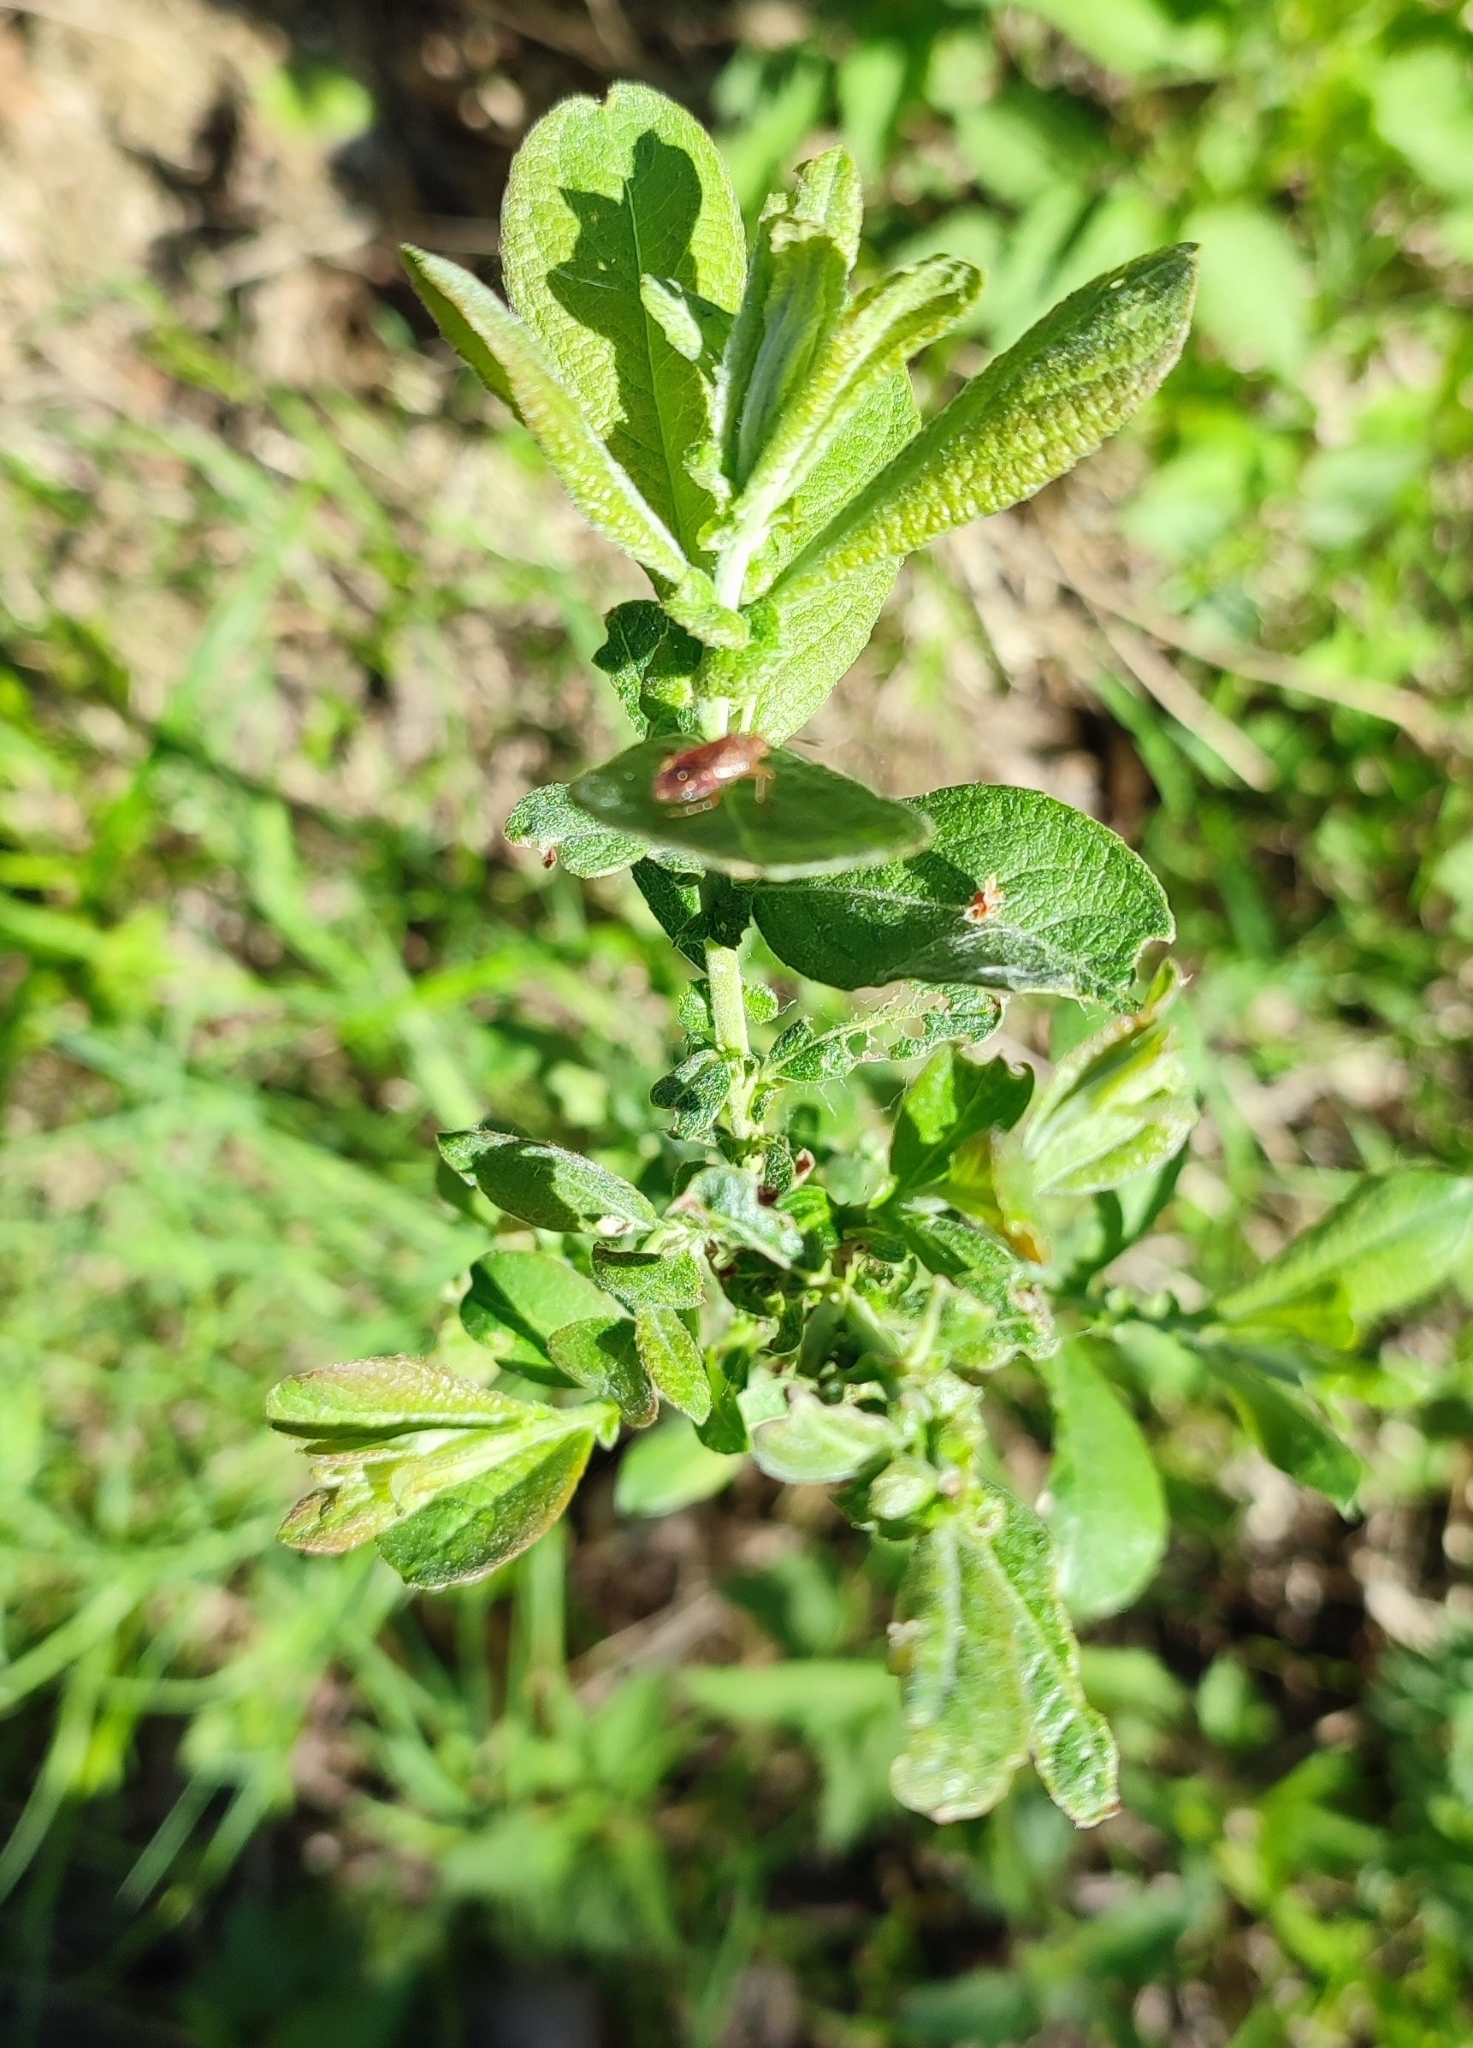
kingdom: Plantae
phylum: Tracheophyta
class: Magnoliopsida
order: Malpighiales
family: Salicaceae
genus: Salix
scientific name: Salix cinerea
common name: Common sallow
